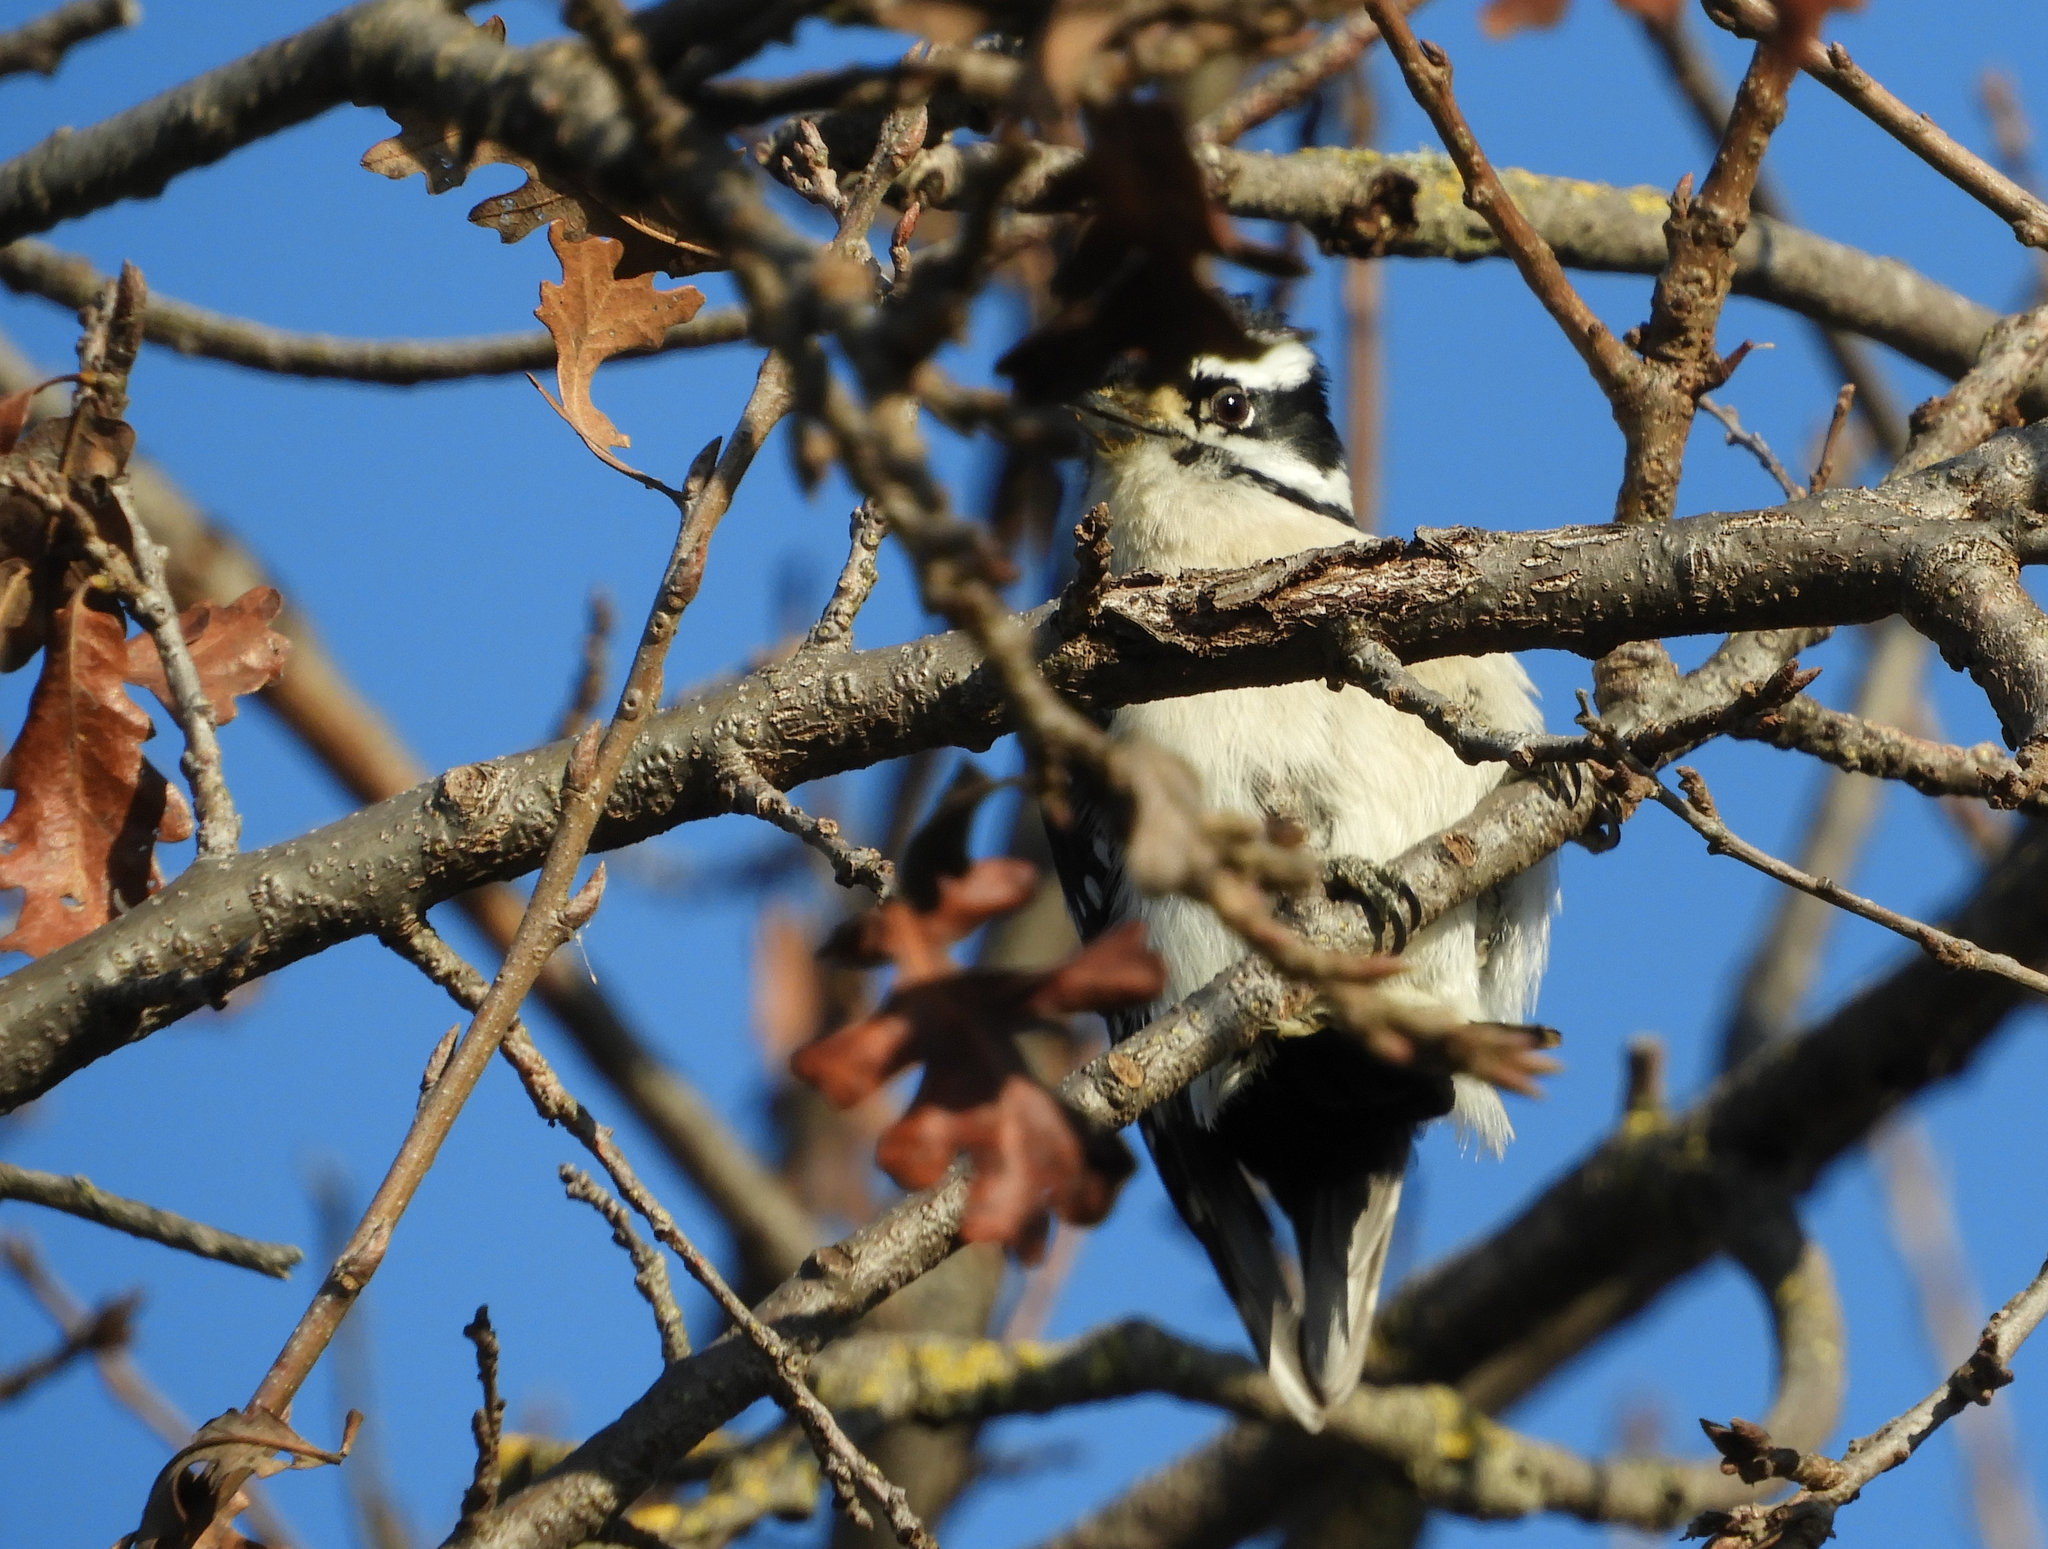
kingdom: Animalia
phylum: Chordata
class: Aves
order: Piciformes
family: Picidae
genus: Dryobates
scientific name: Dryobates pubescens
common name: Downy woodpecker
